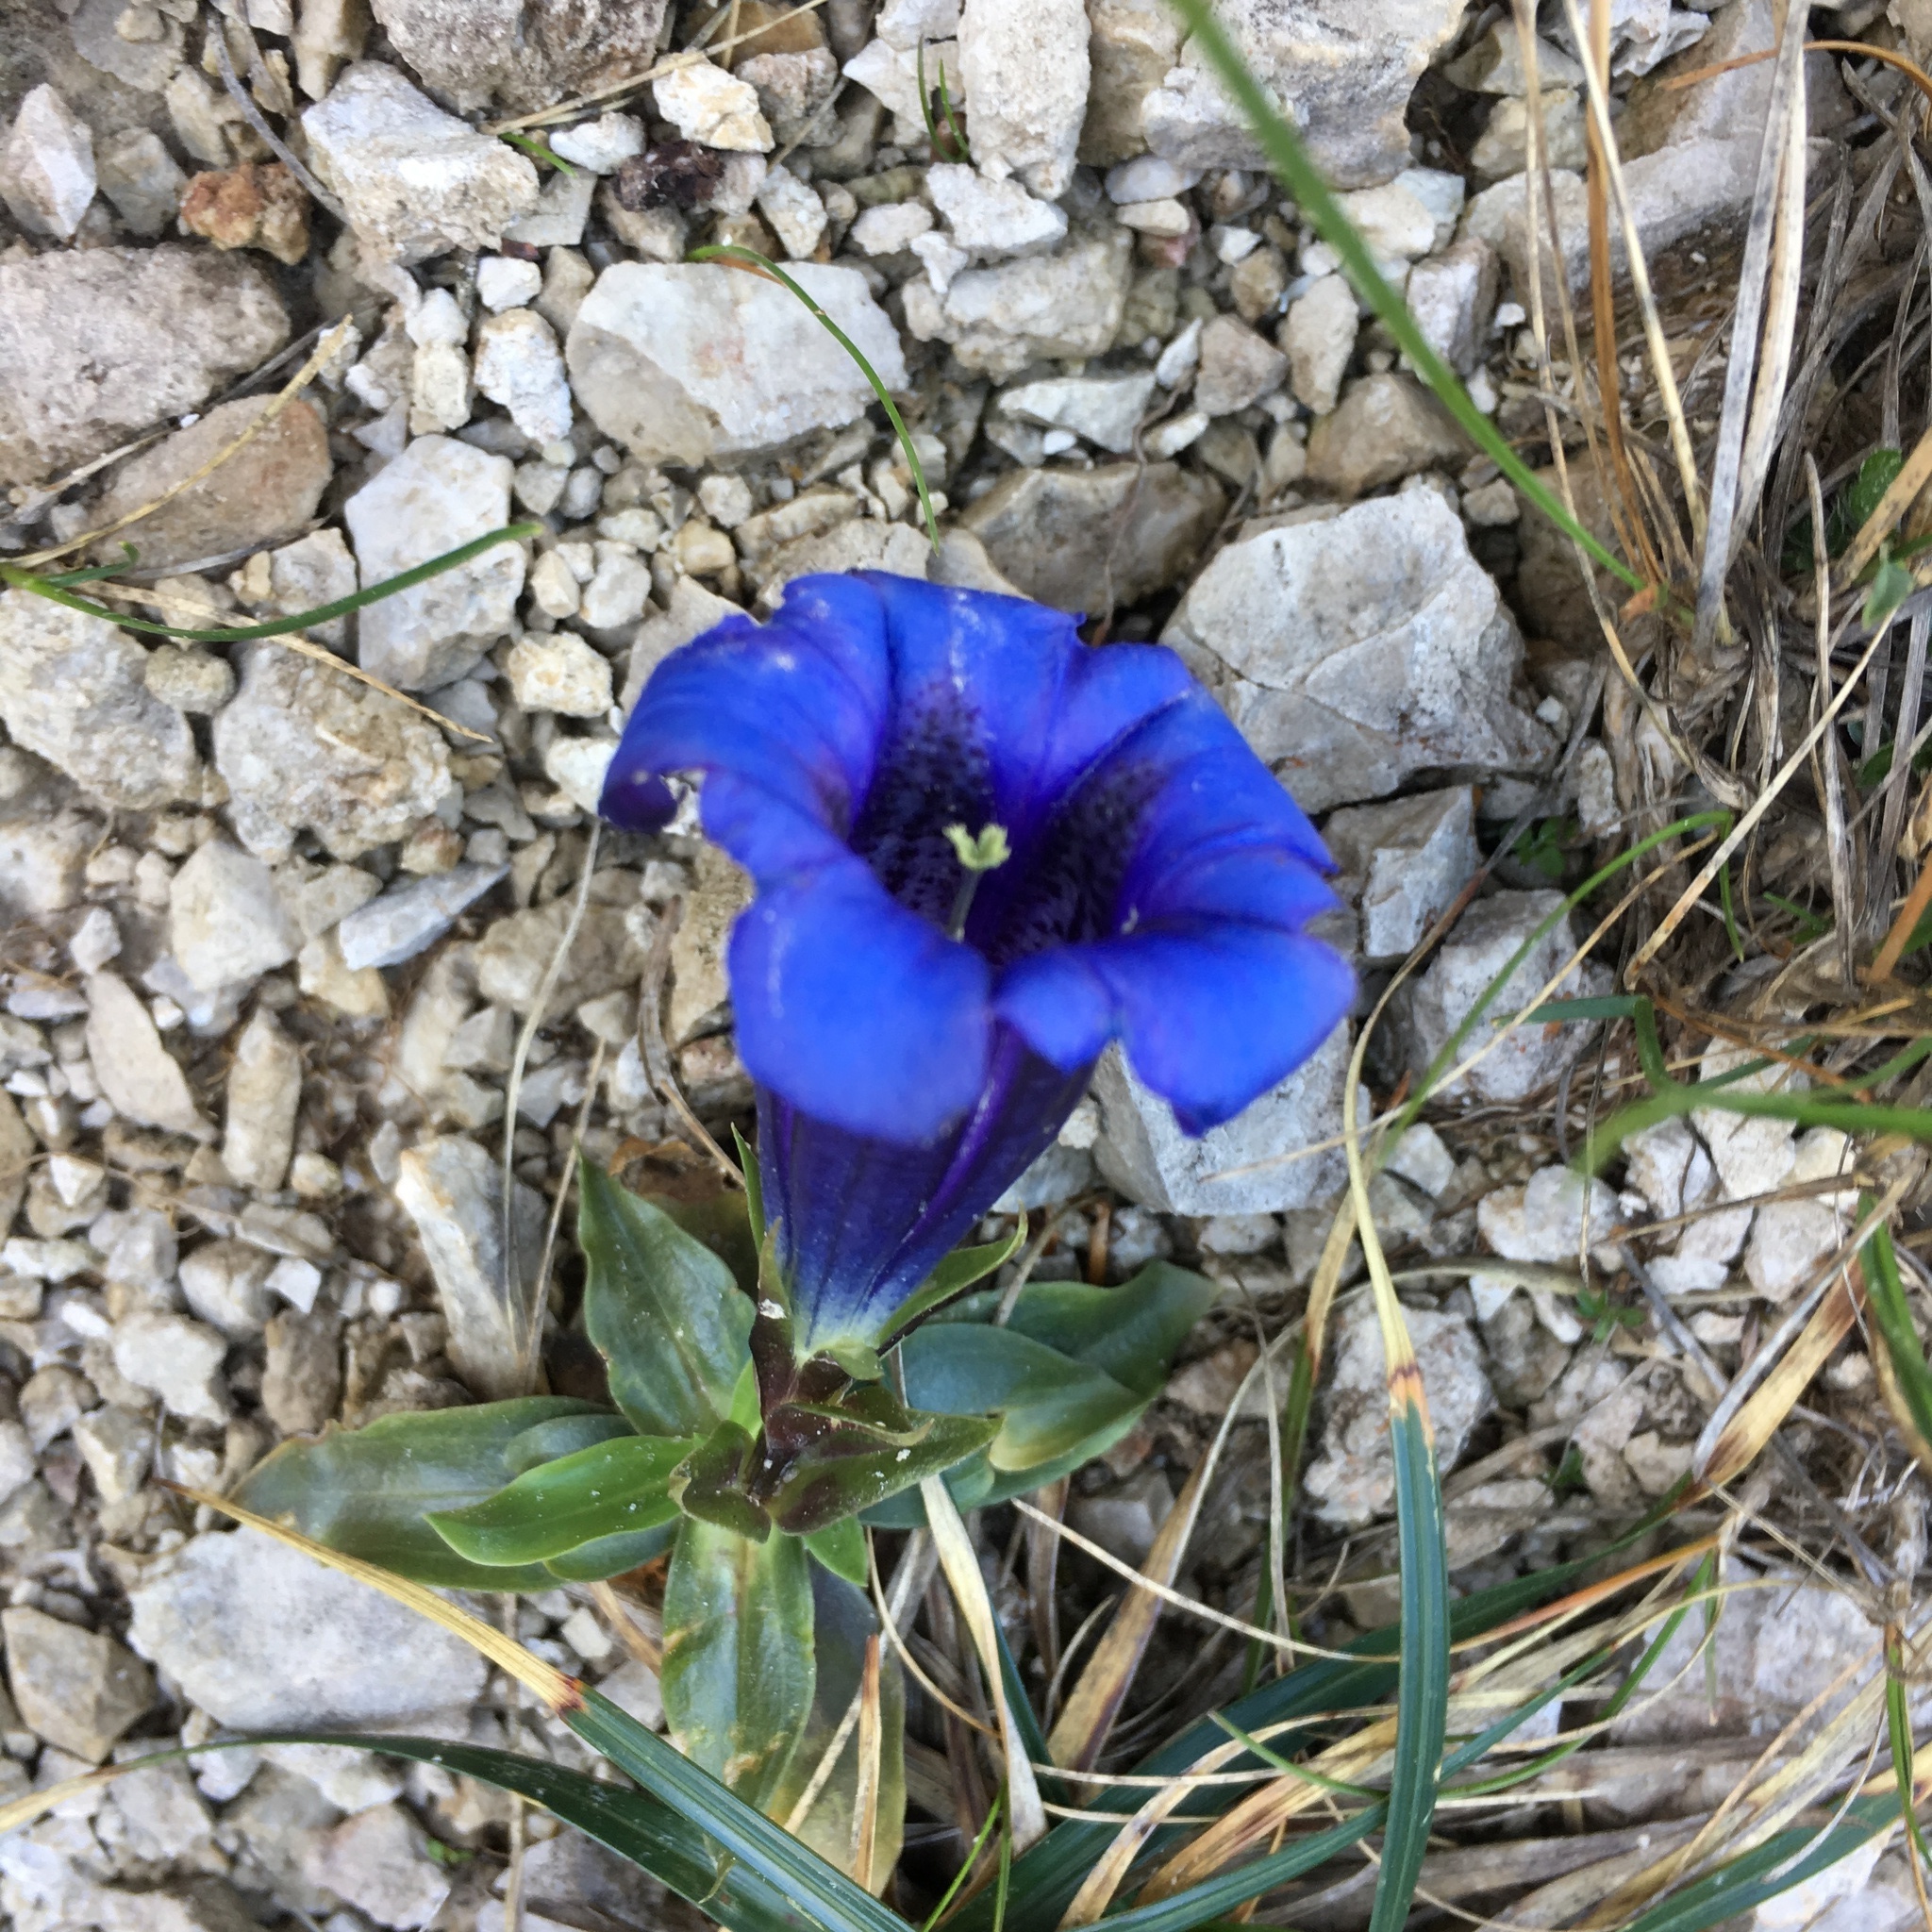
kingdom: Plantae
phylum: Tracheophyta
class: Magnoliopsida
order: Gentianales
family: Gentianaceae
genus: Gentiana
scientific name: Gentiana clusii
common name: Trumpet gentian
